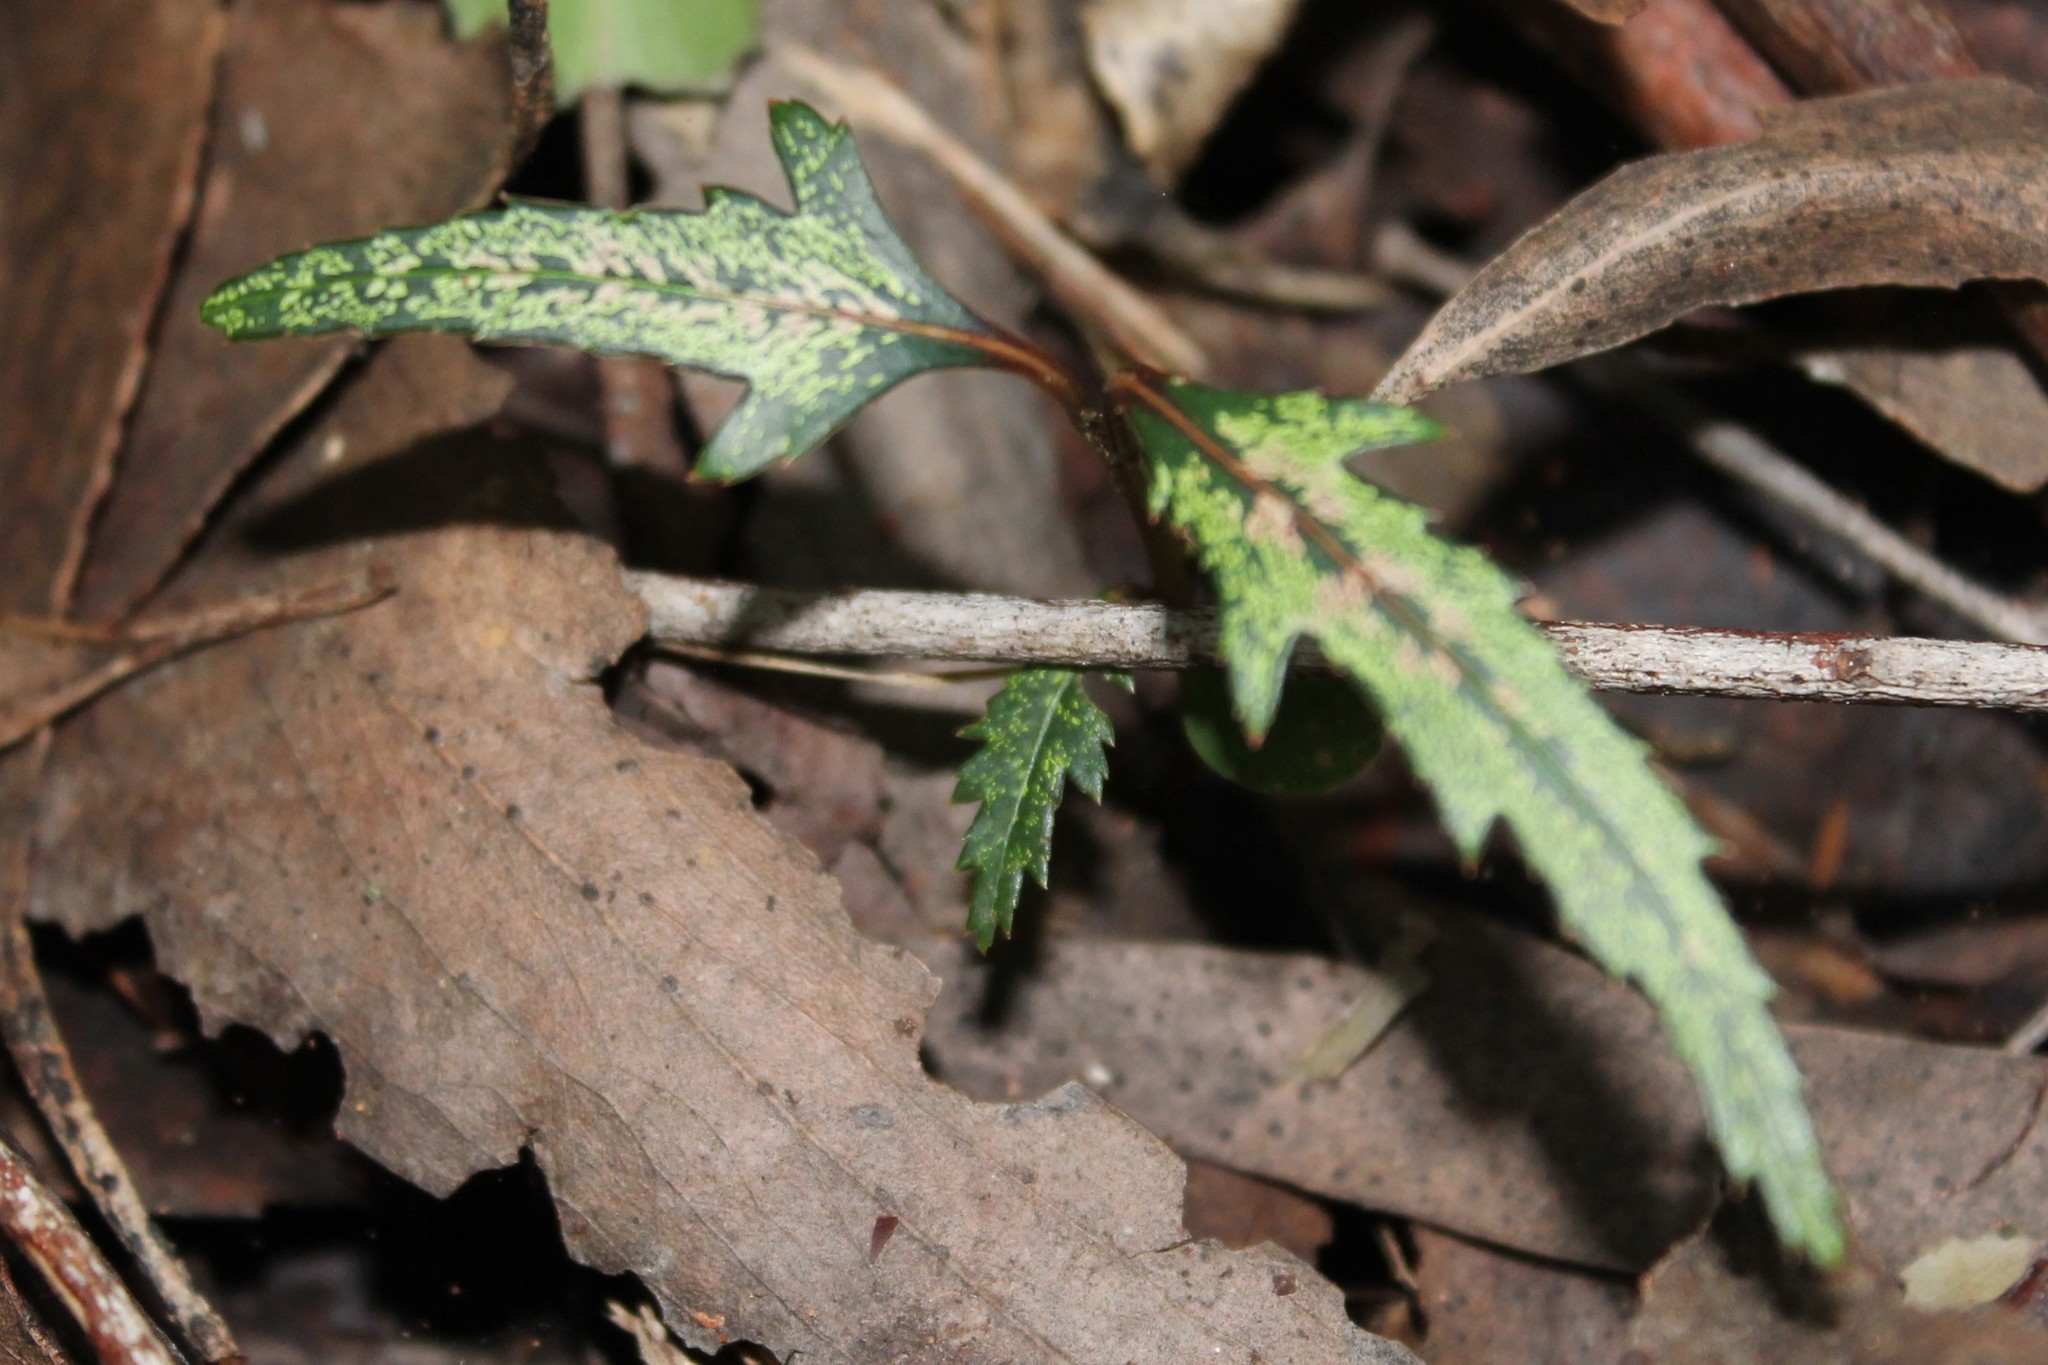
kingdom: Plantae
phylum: Tracheophyta
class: Magnoliopsida
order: Apiales
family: Araliaceae
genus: Pseudopanax
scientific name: Pseudopanax crassifolius
